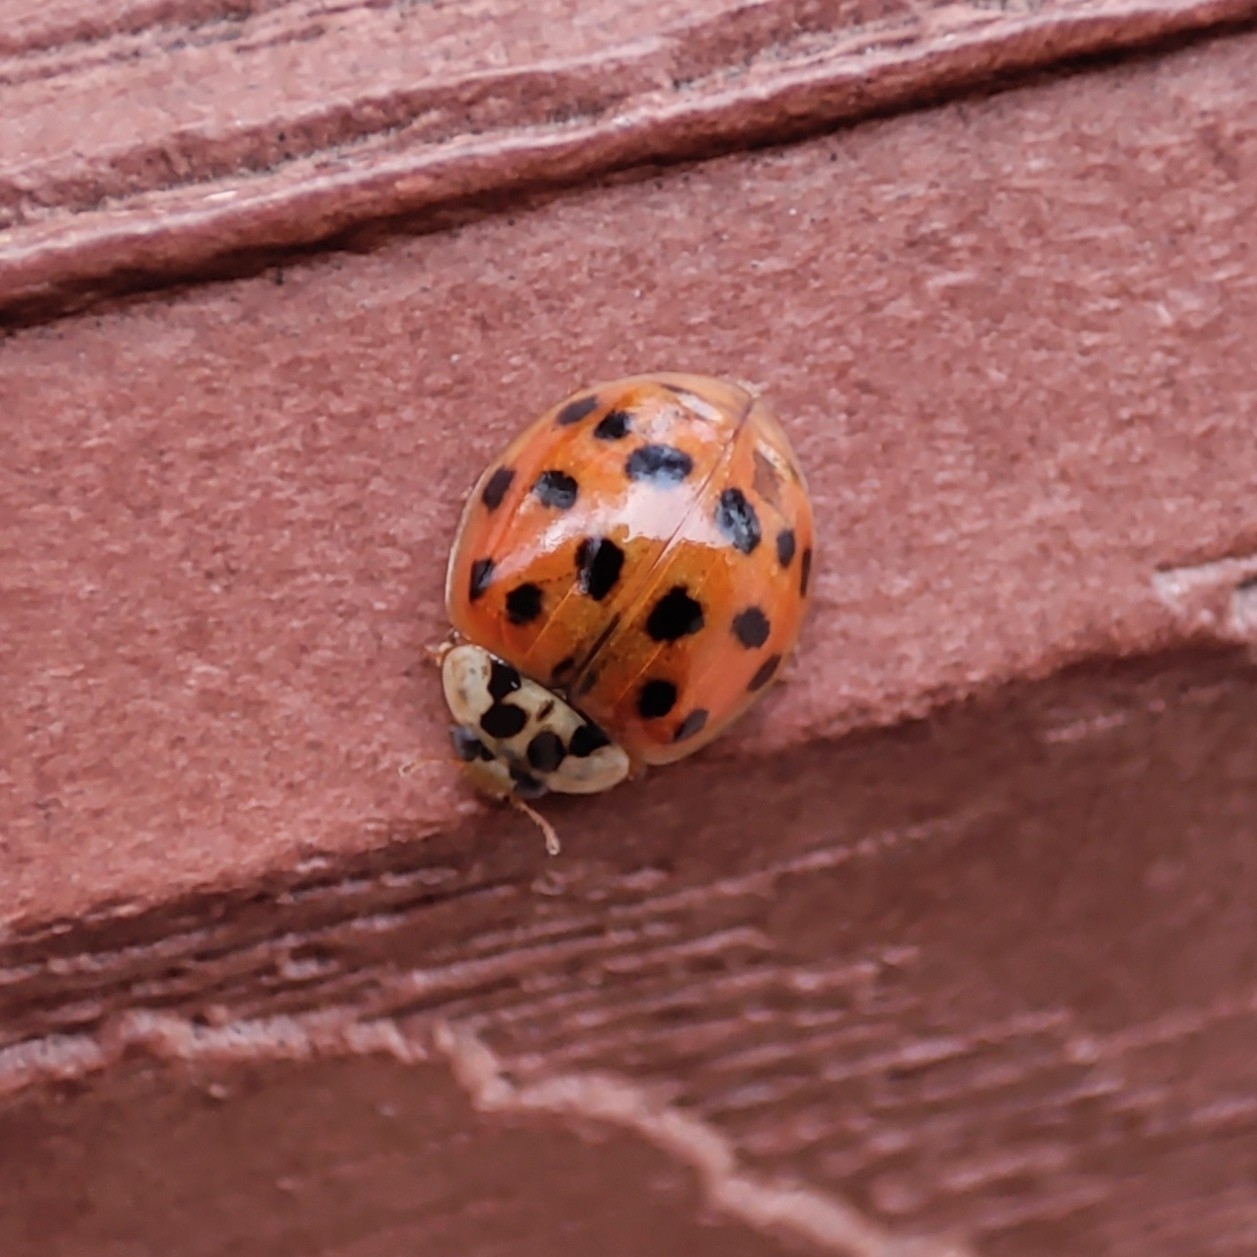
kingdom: Animalia
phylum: Arthropoda
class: Insecta
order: Coleoptera
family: Coccinellidae
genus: Harmonia
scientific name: Harmonia axyridis
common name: Harlequin ladybird
